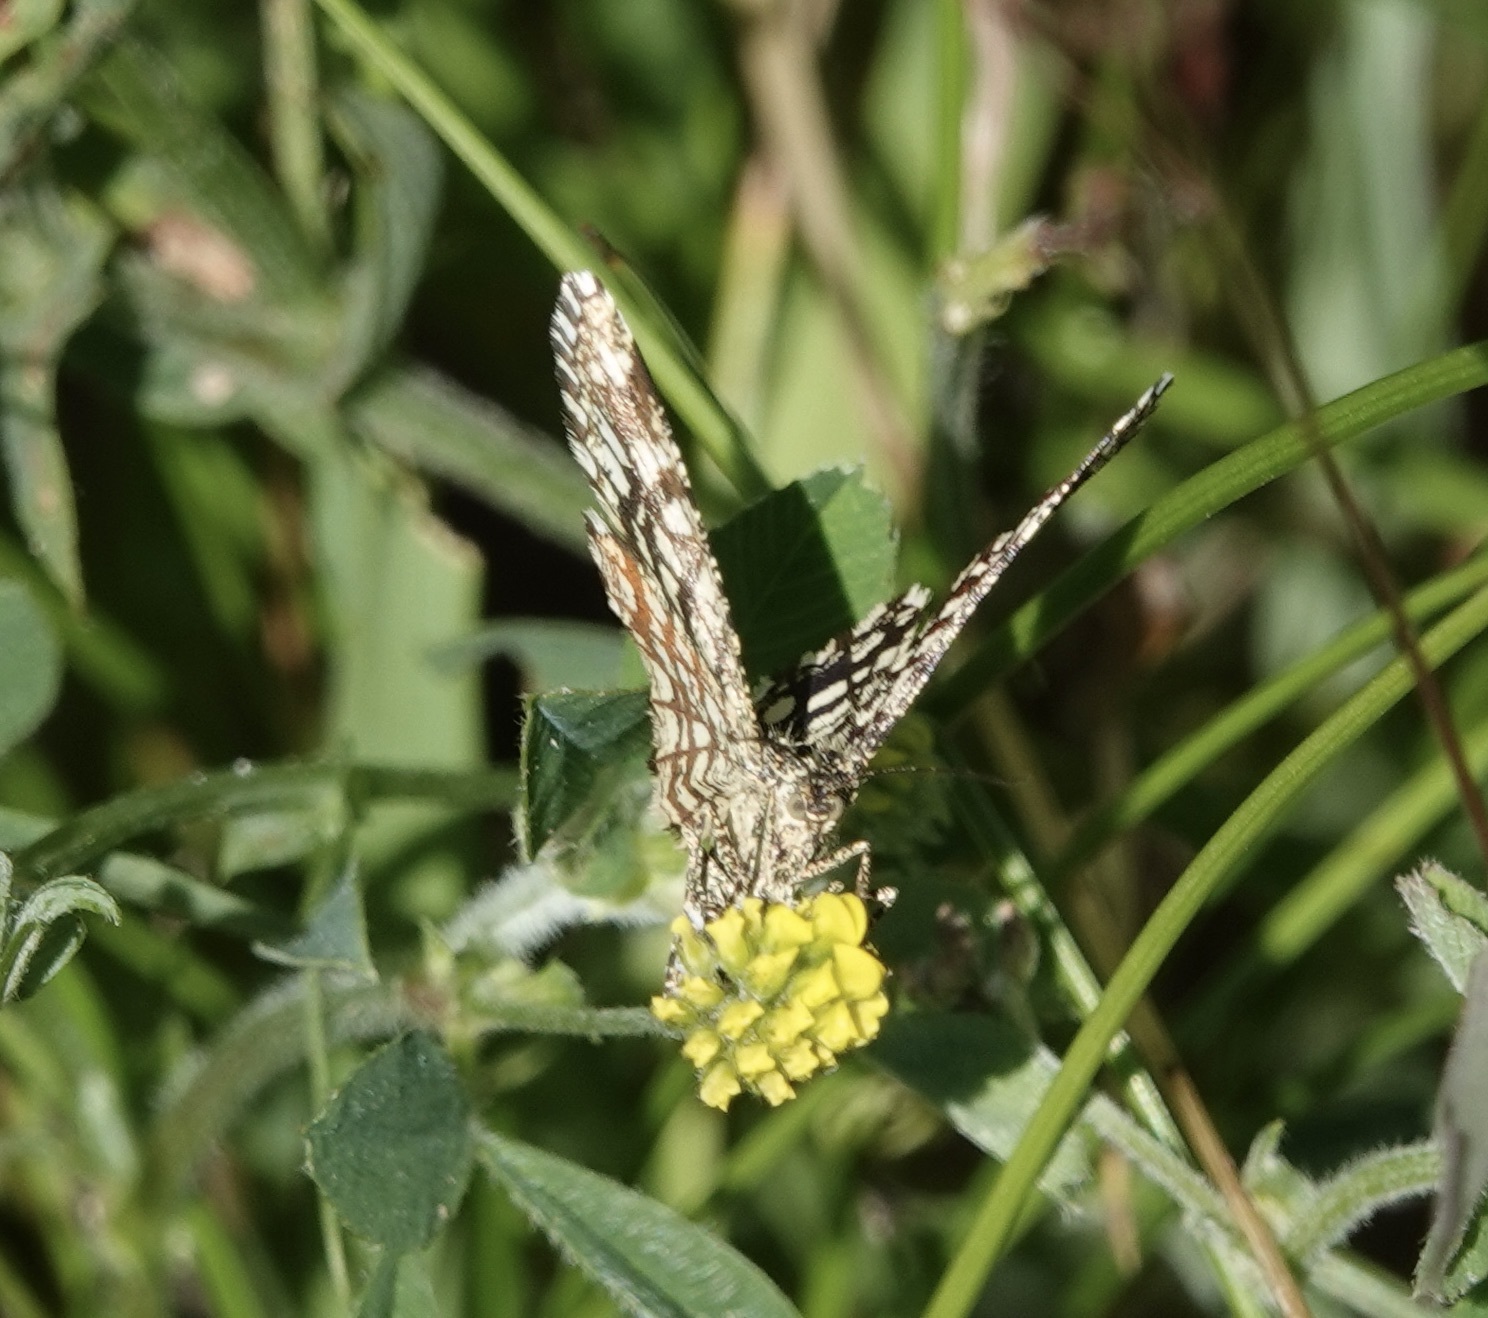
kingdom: Animalia
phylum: Arthropoda
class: Insecta
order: Lepidoptera
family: Geometridae
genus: Chiasmia
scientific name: Chiasmia clathrata
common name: Latticed heath
